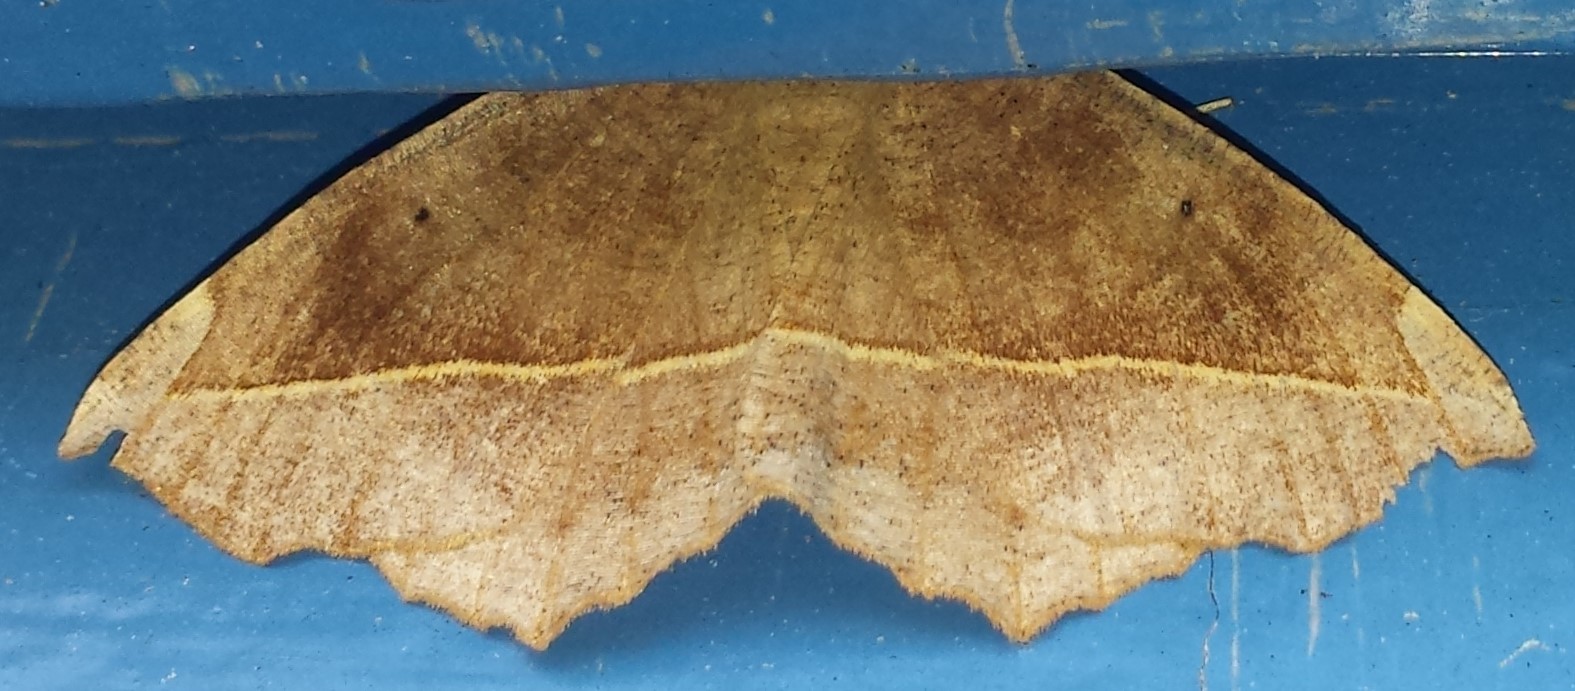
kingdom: Animalia
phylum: Arthropoda
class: Insecta
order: Lepidoptera
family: Geometridae
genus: Eutrapela
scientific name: Eutrapela clemataria
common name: Curved-toothed geometer
